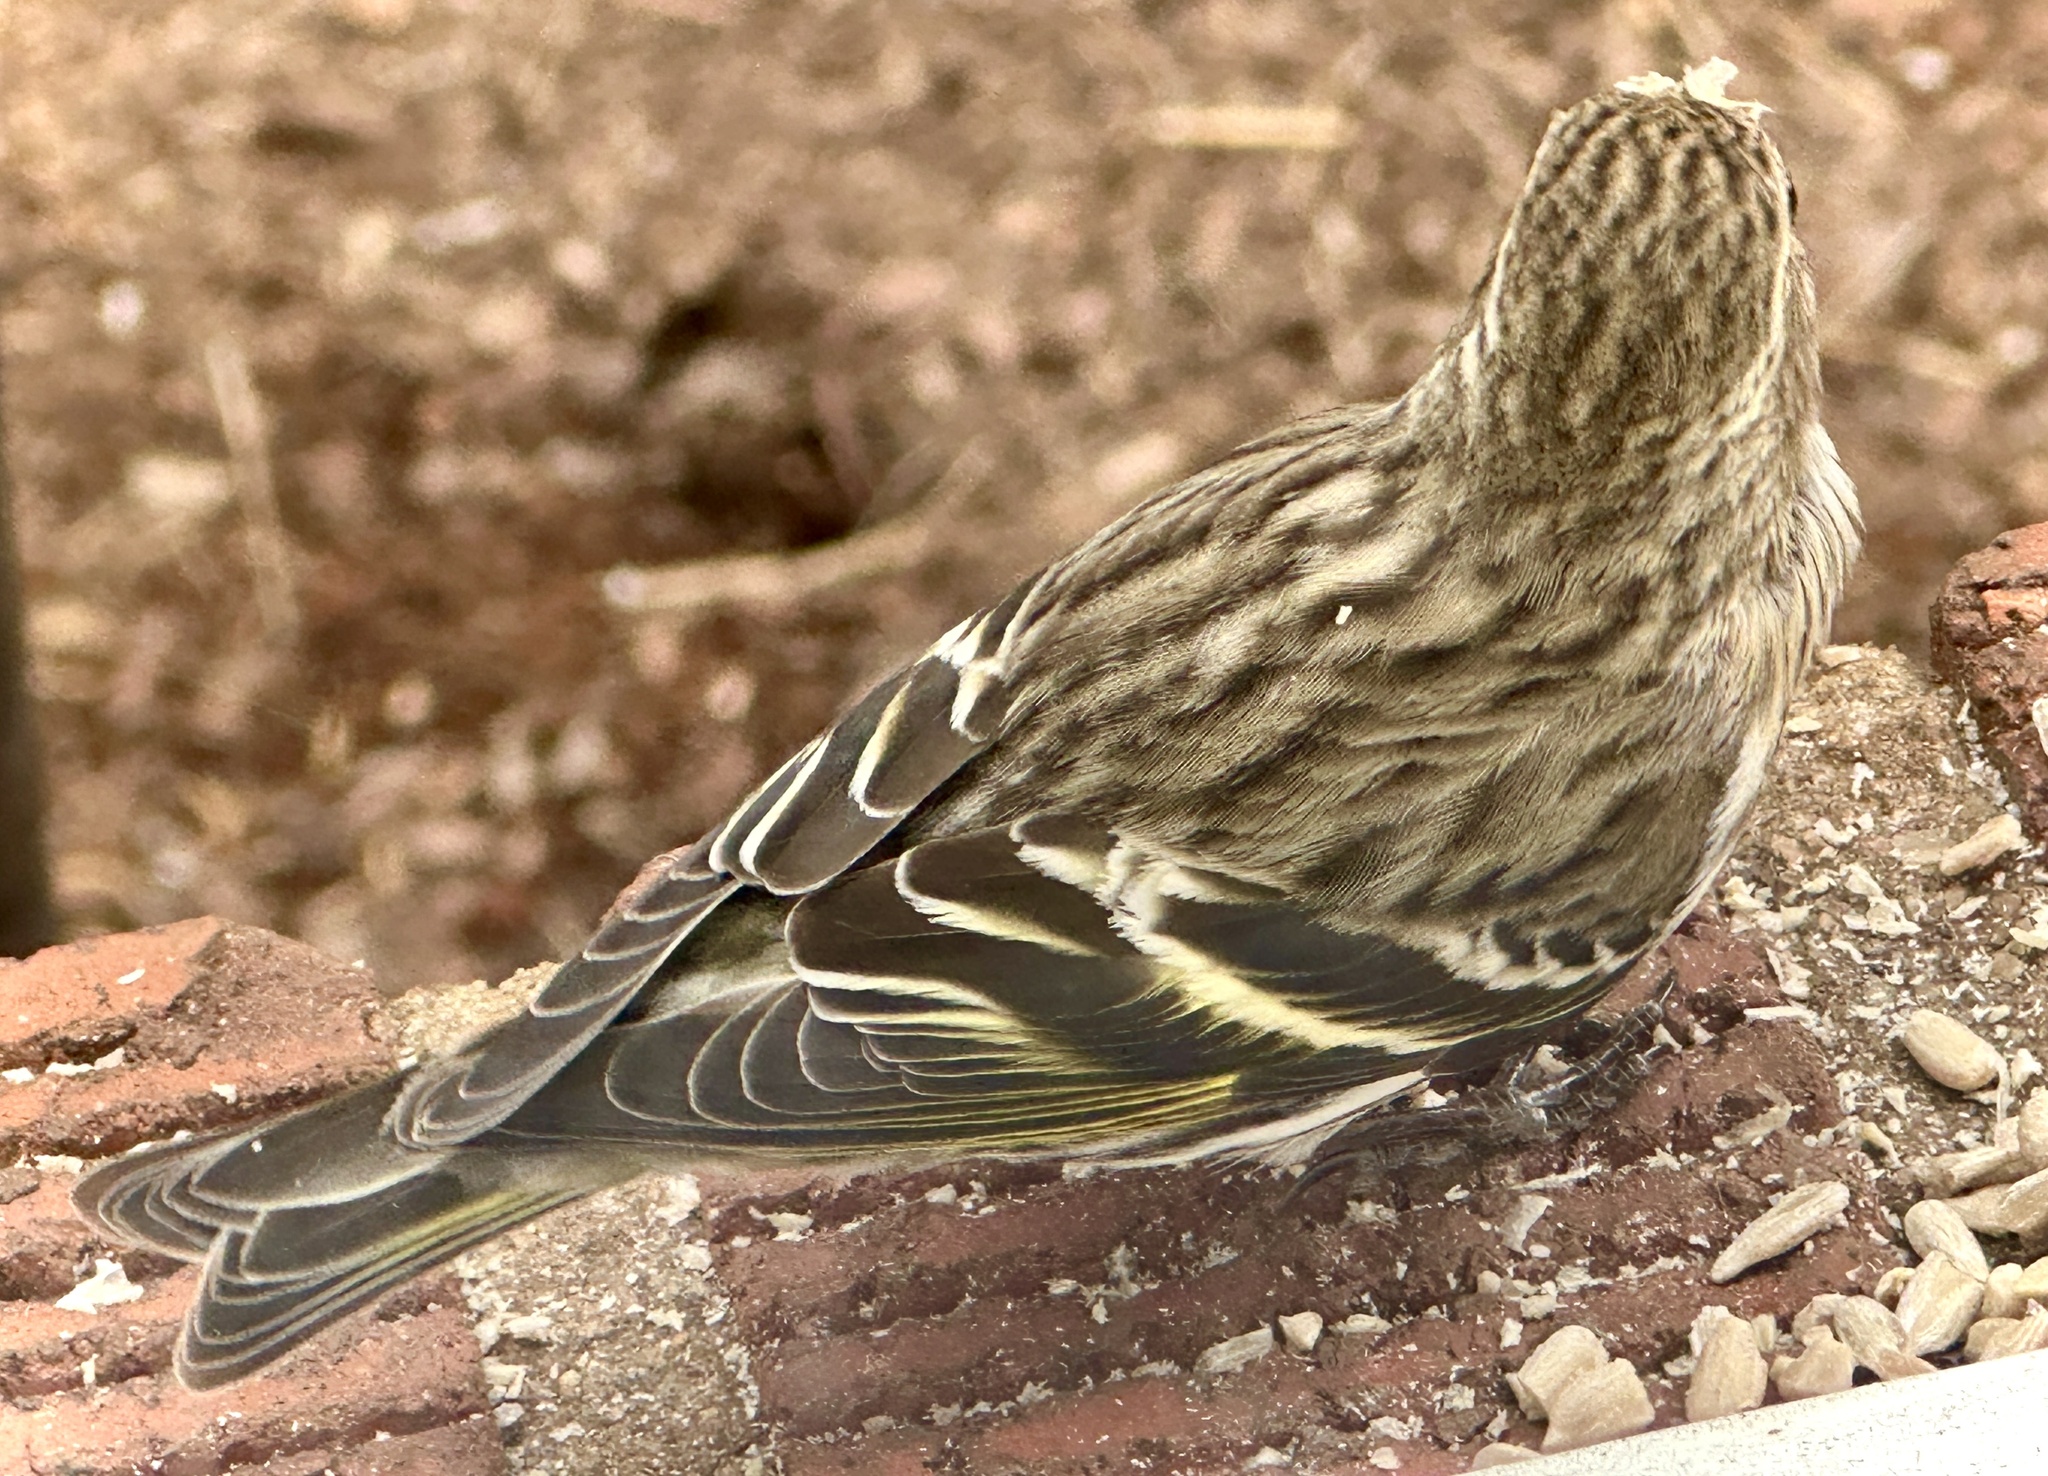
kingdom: Animalia
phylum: Chordata
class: Aves
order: Passeriformes
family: Fringillidae
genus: Spinus
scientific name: Spinus pinus
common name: Pine siskin
